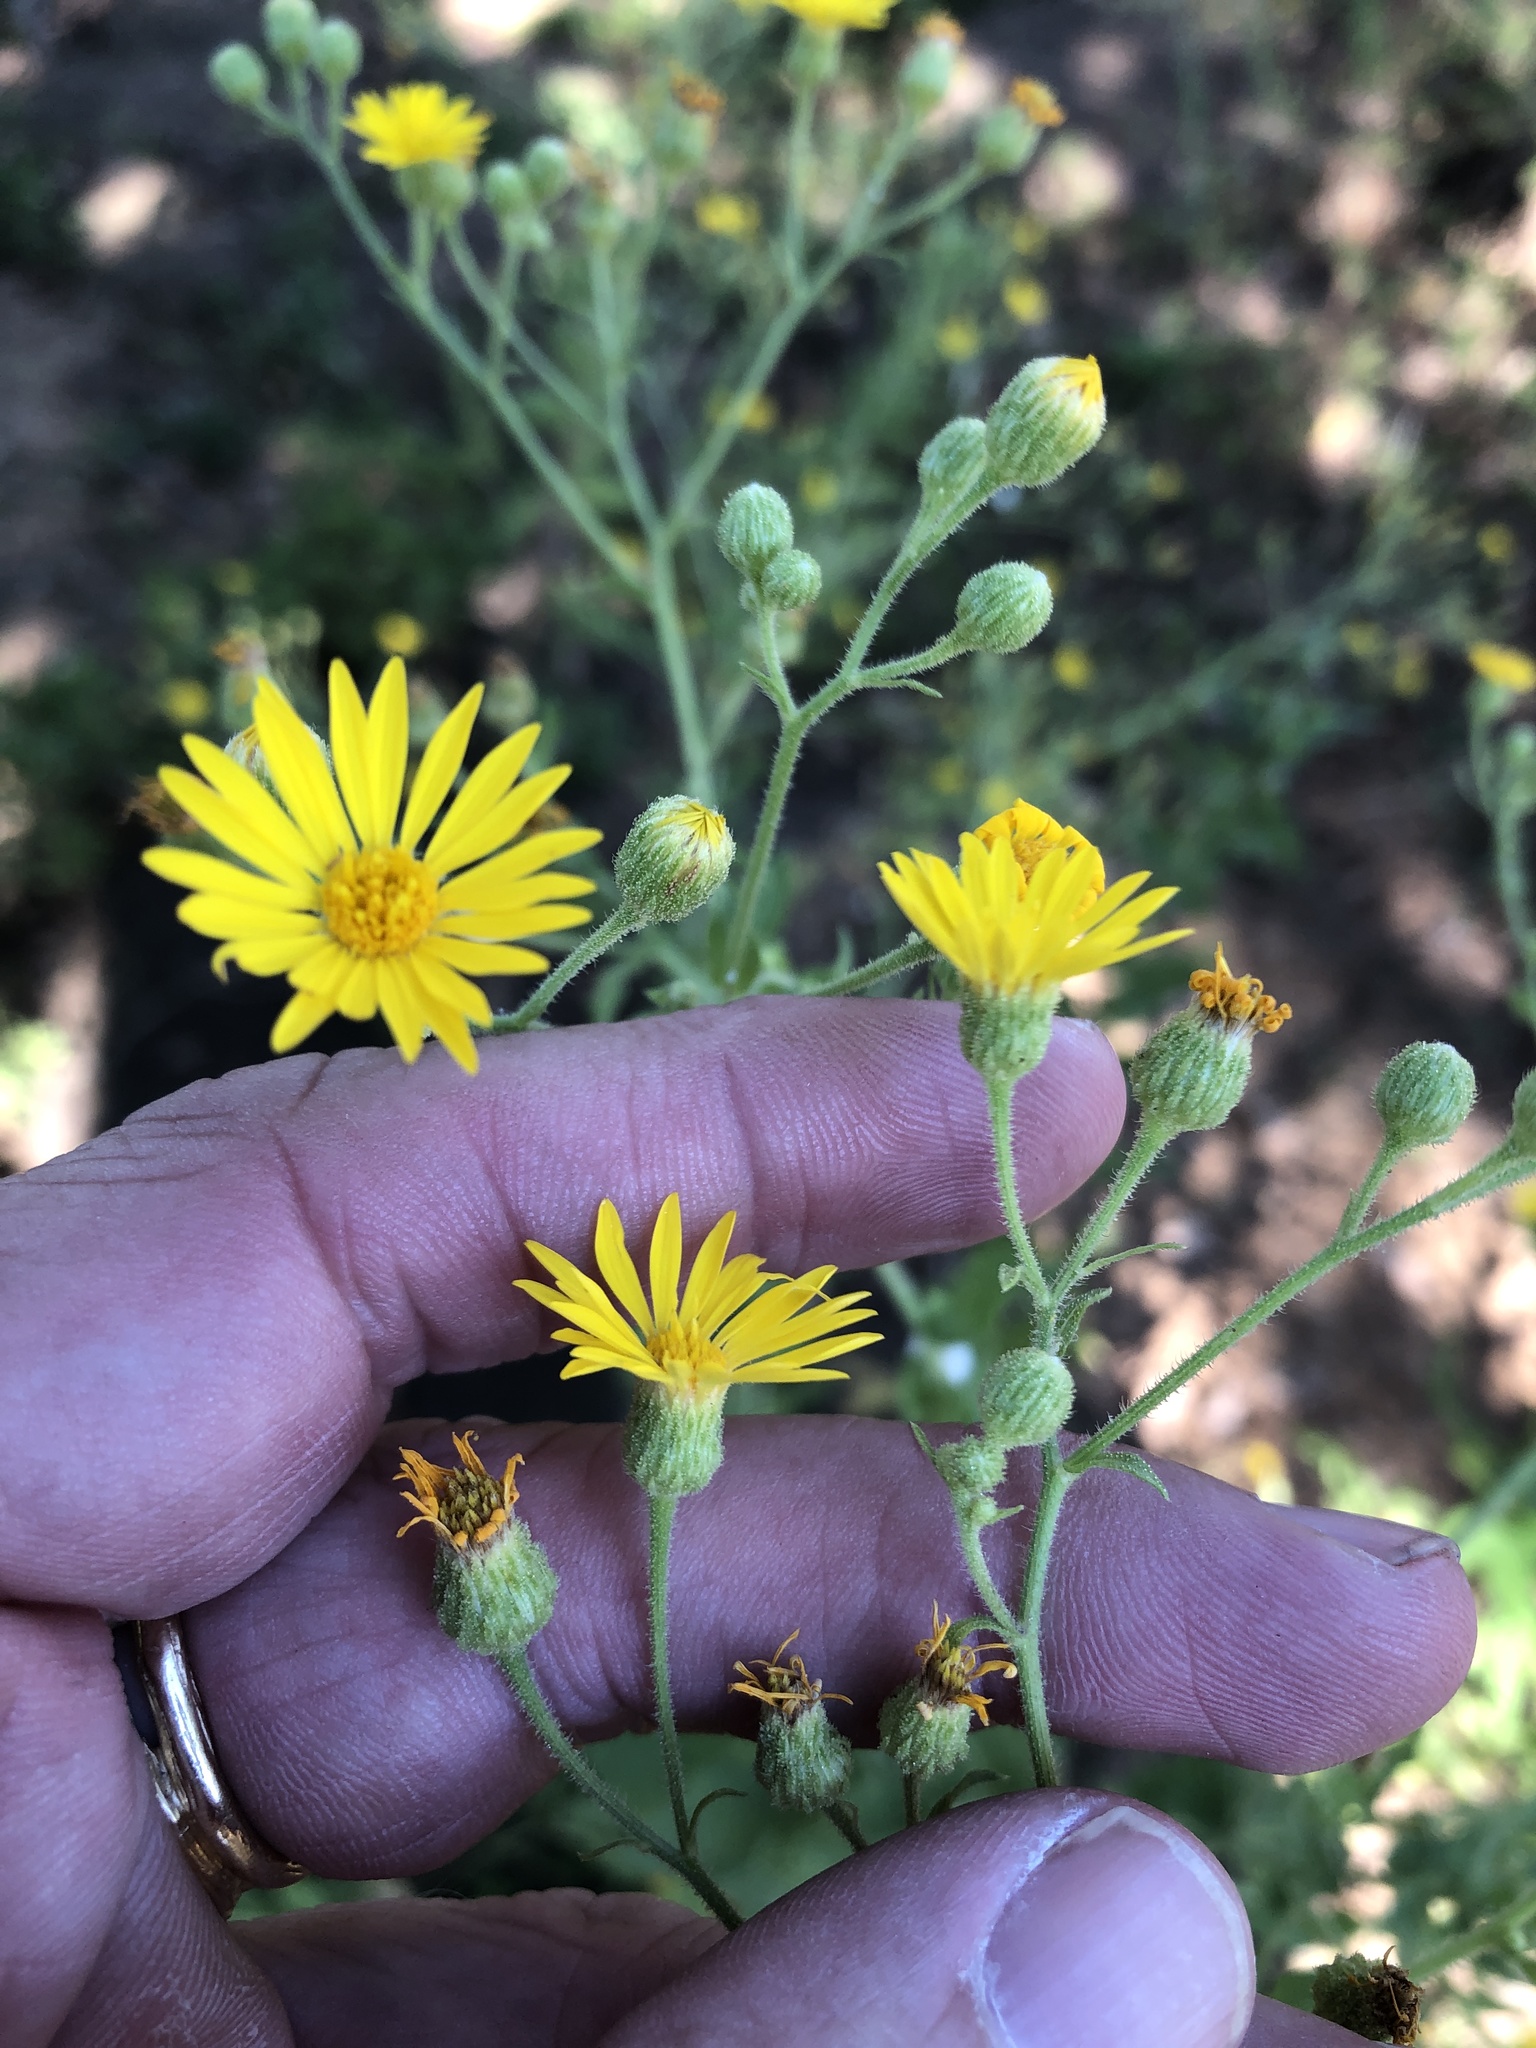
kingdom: Plantae
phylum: Tracheophyta
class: Magnoliopsida
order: Asterales
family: Asteraceae
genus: Heterotheca
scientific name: Heterotheca subaxillaris
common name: Camphorweed
